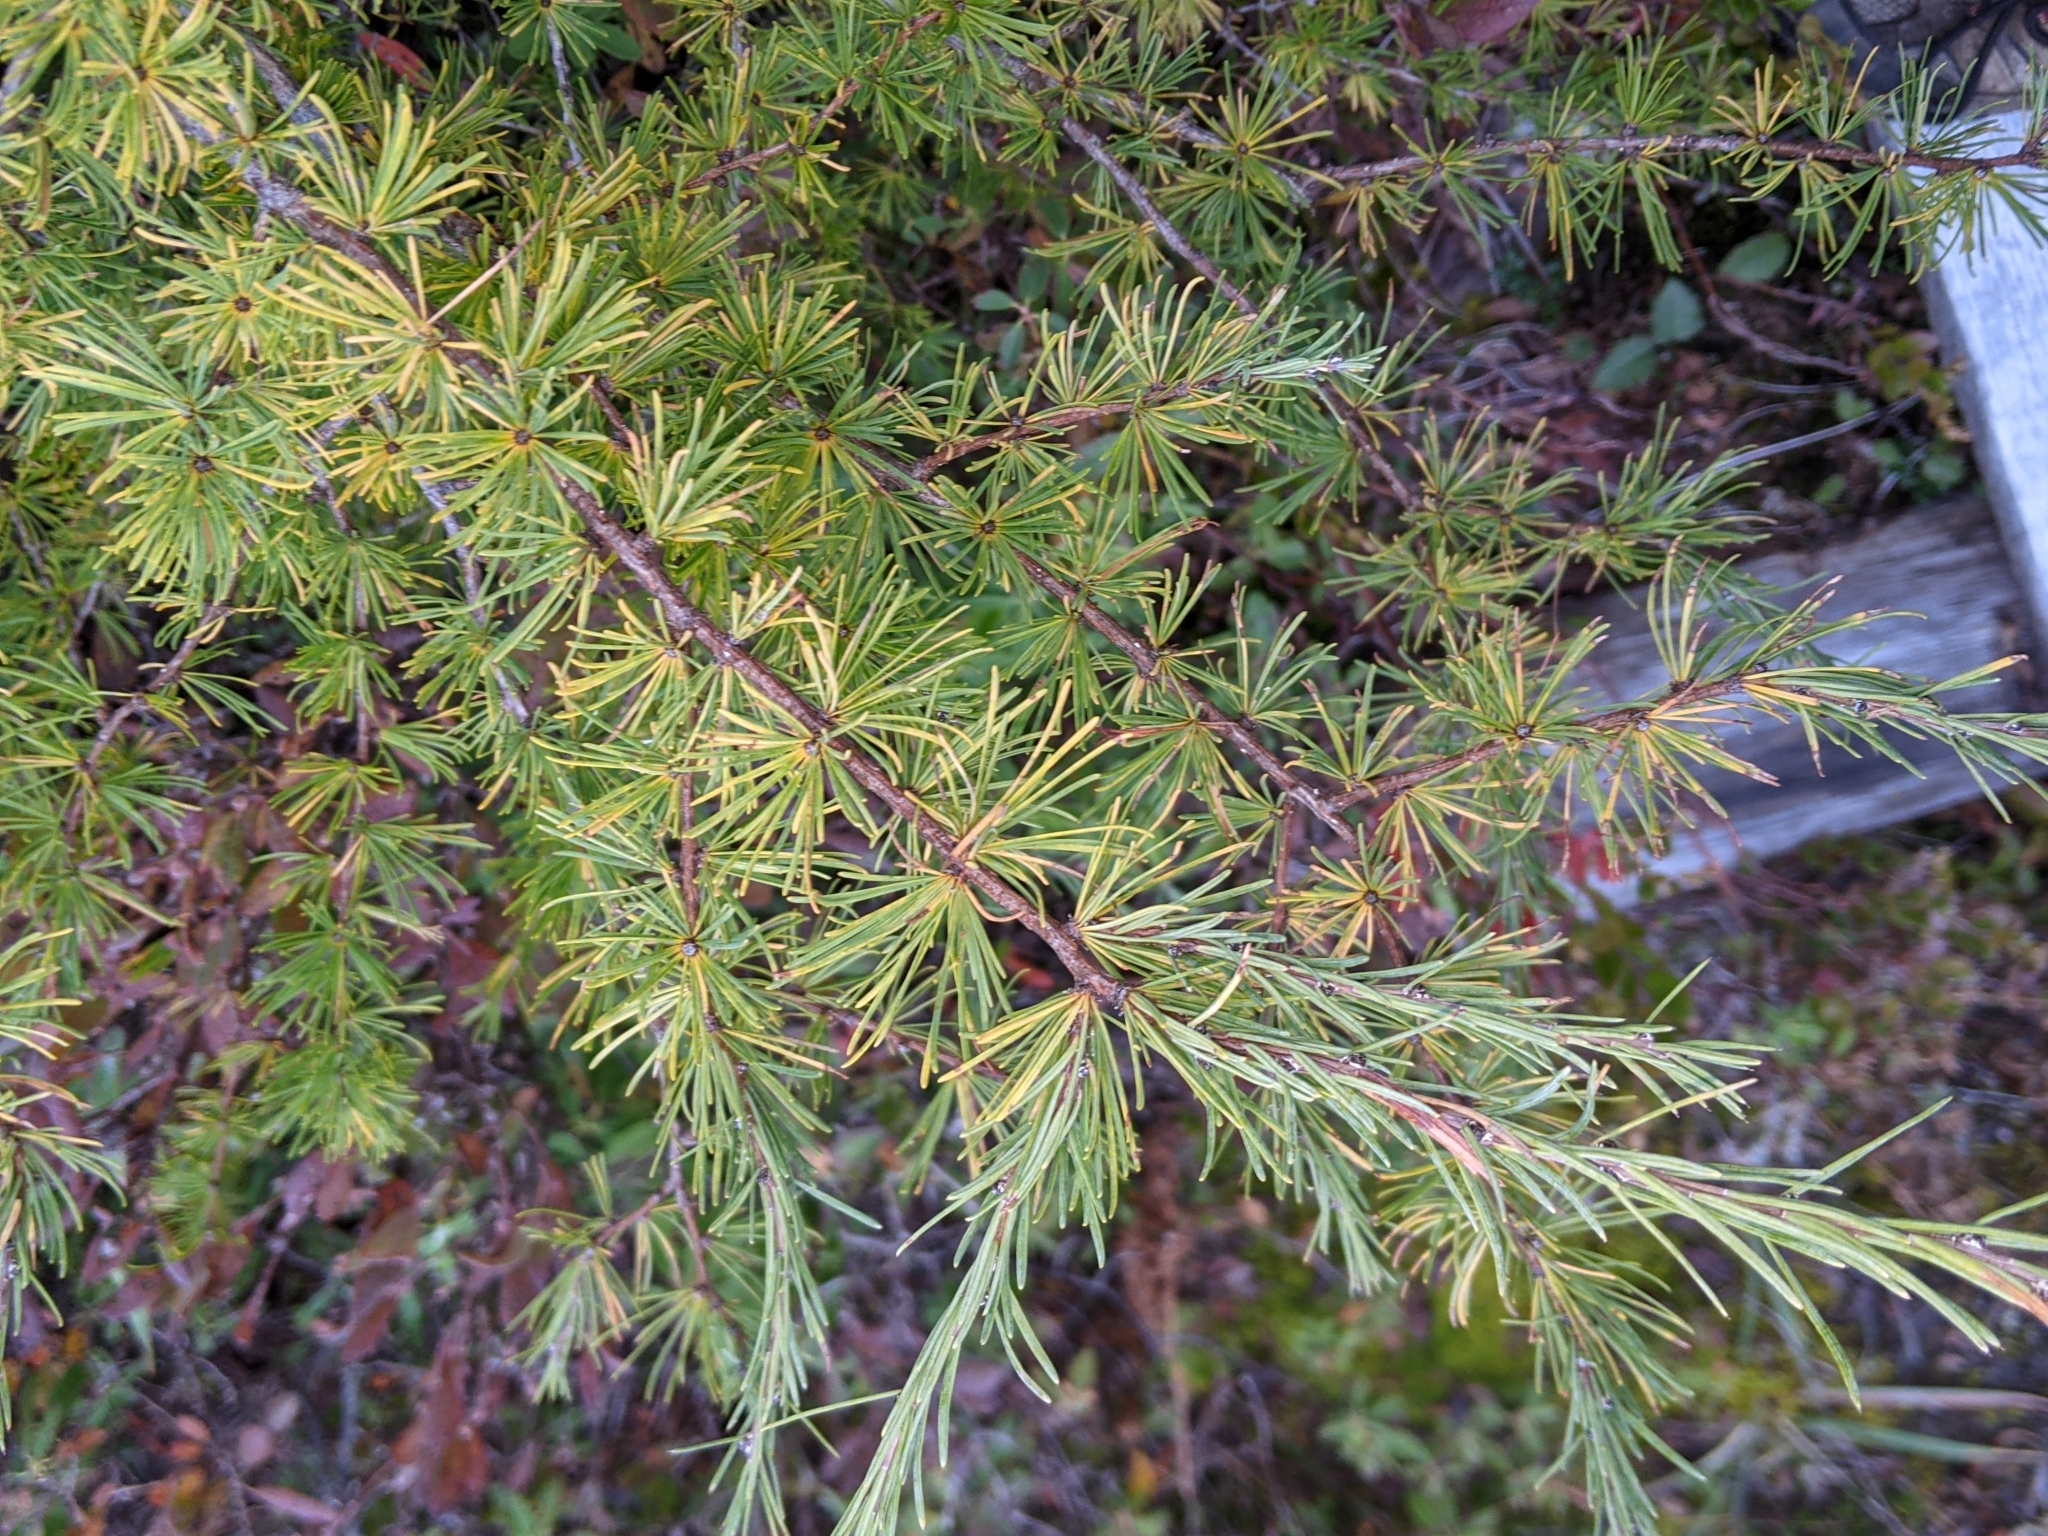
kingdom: Plantae
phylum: Tracheophyta
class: Pinopsida
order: Pinales
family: Pinaceae
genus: Larix
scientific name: Larix laricina
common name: American larch
